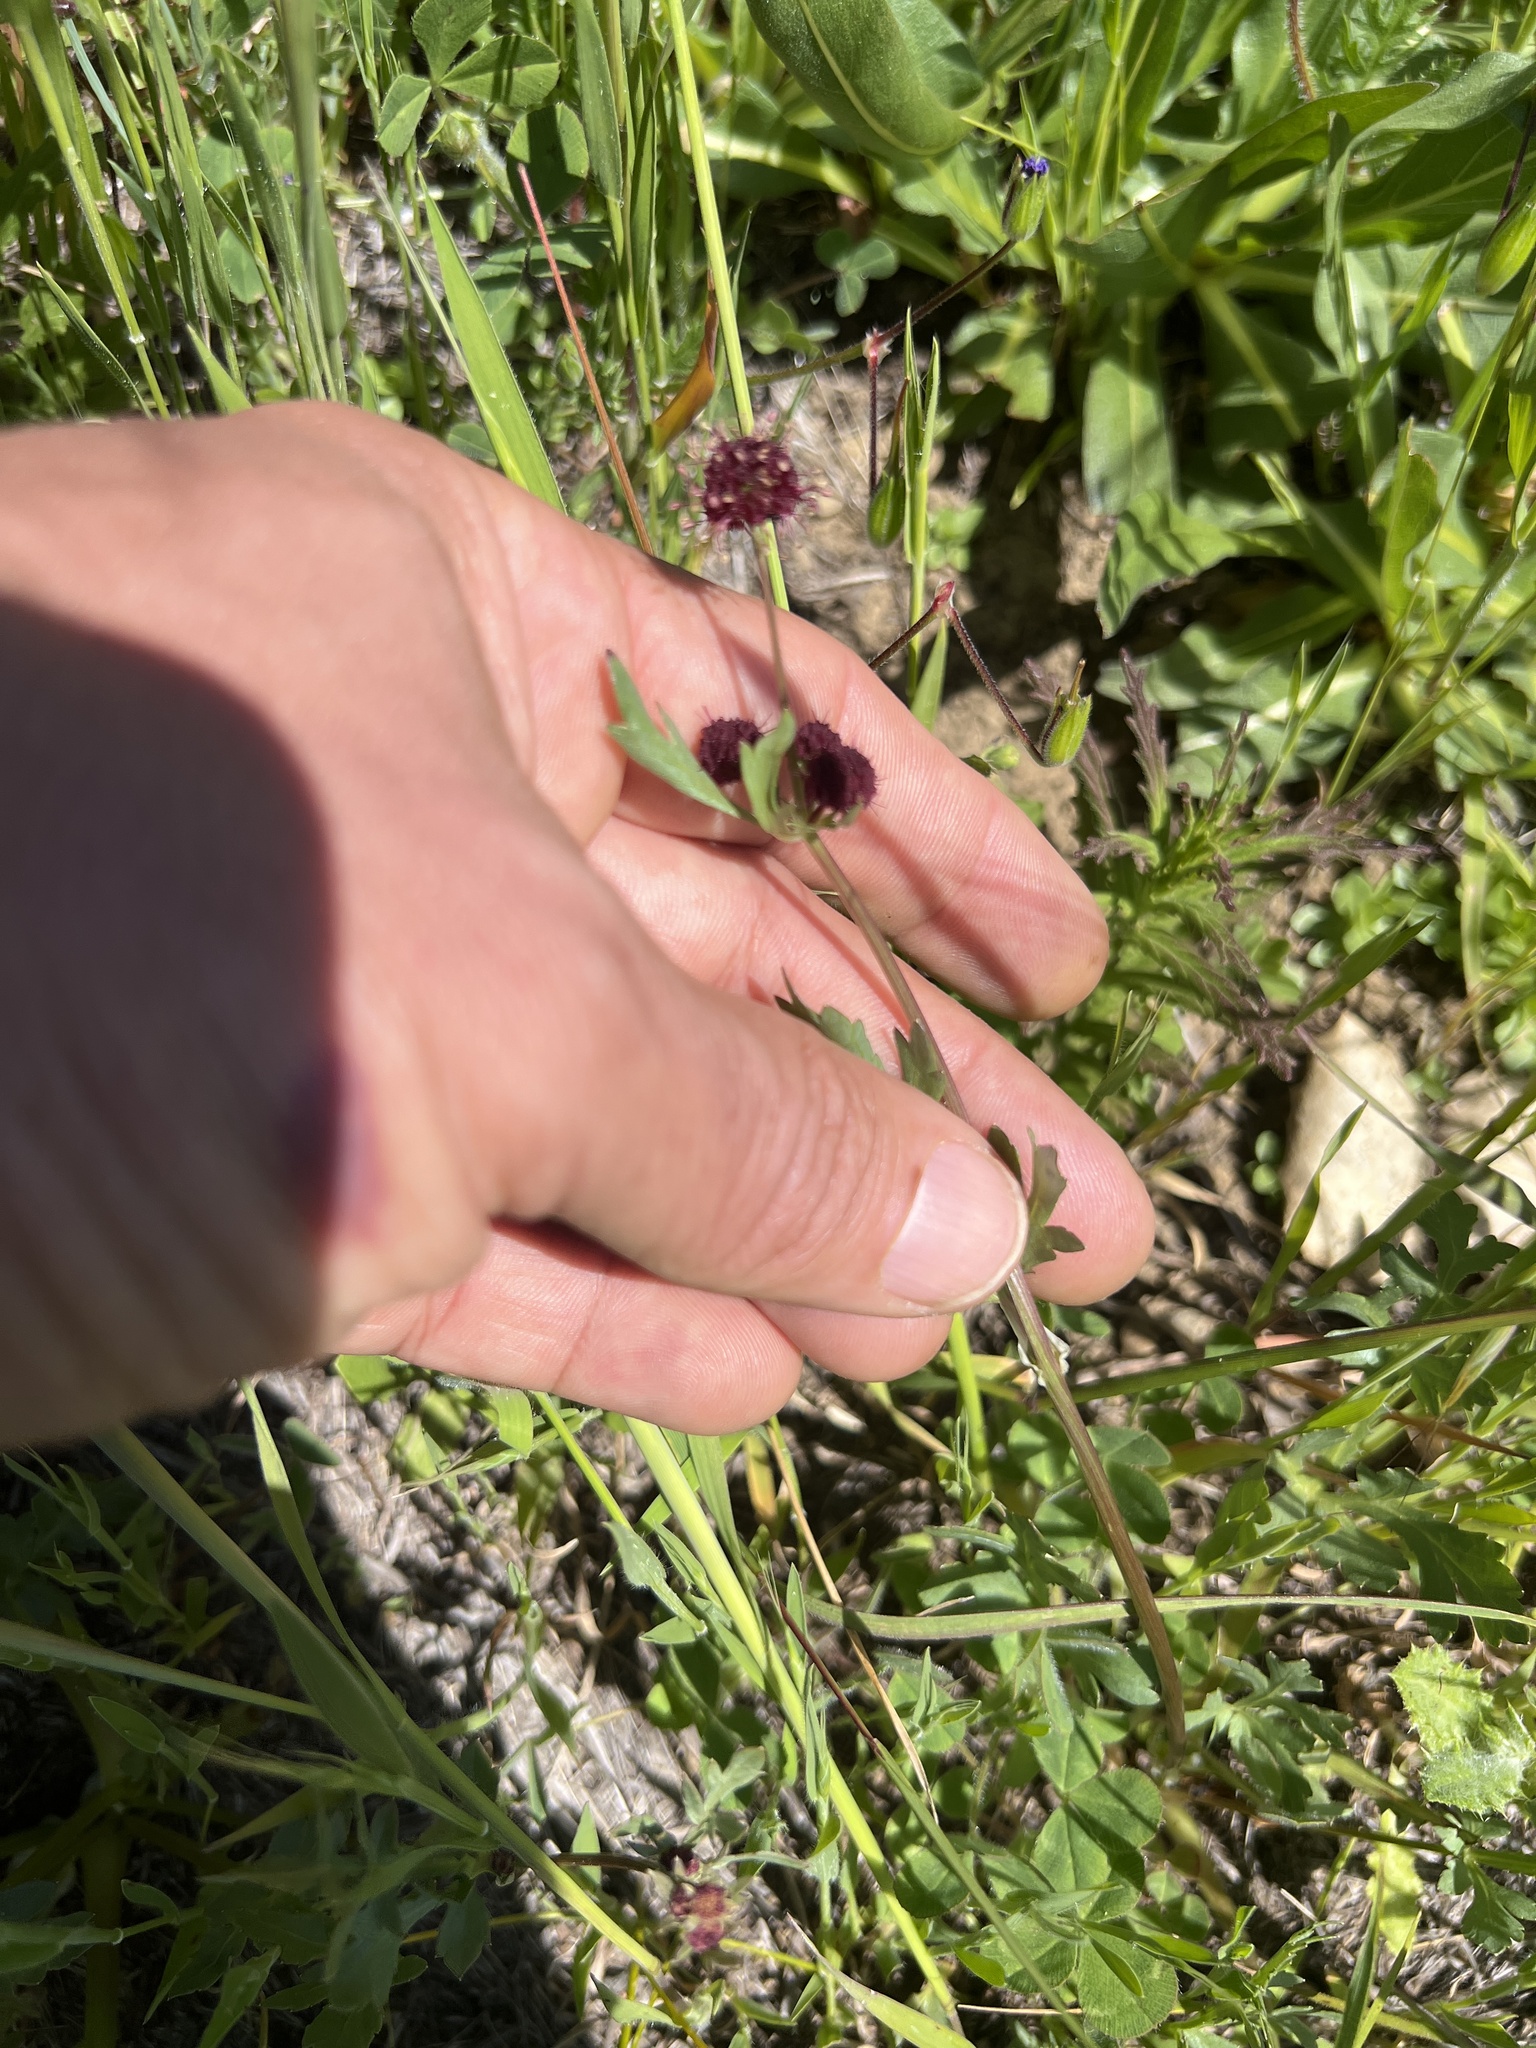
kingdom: Plantae
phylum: Tracheophyta
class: Magnoliopsida
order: Apiales
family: Apiaceae
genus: Sanicula
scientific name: Sanicula bipinnatifida
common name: Shoe-buttons
